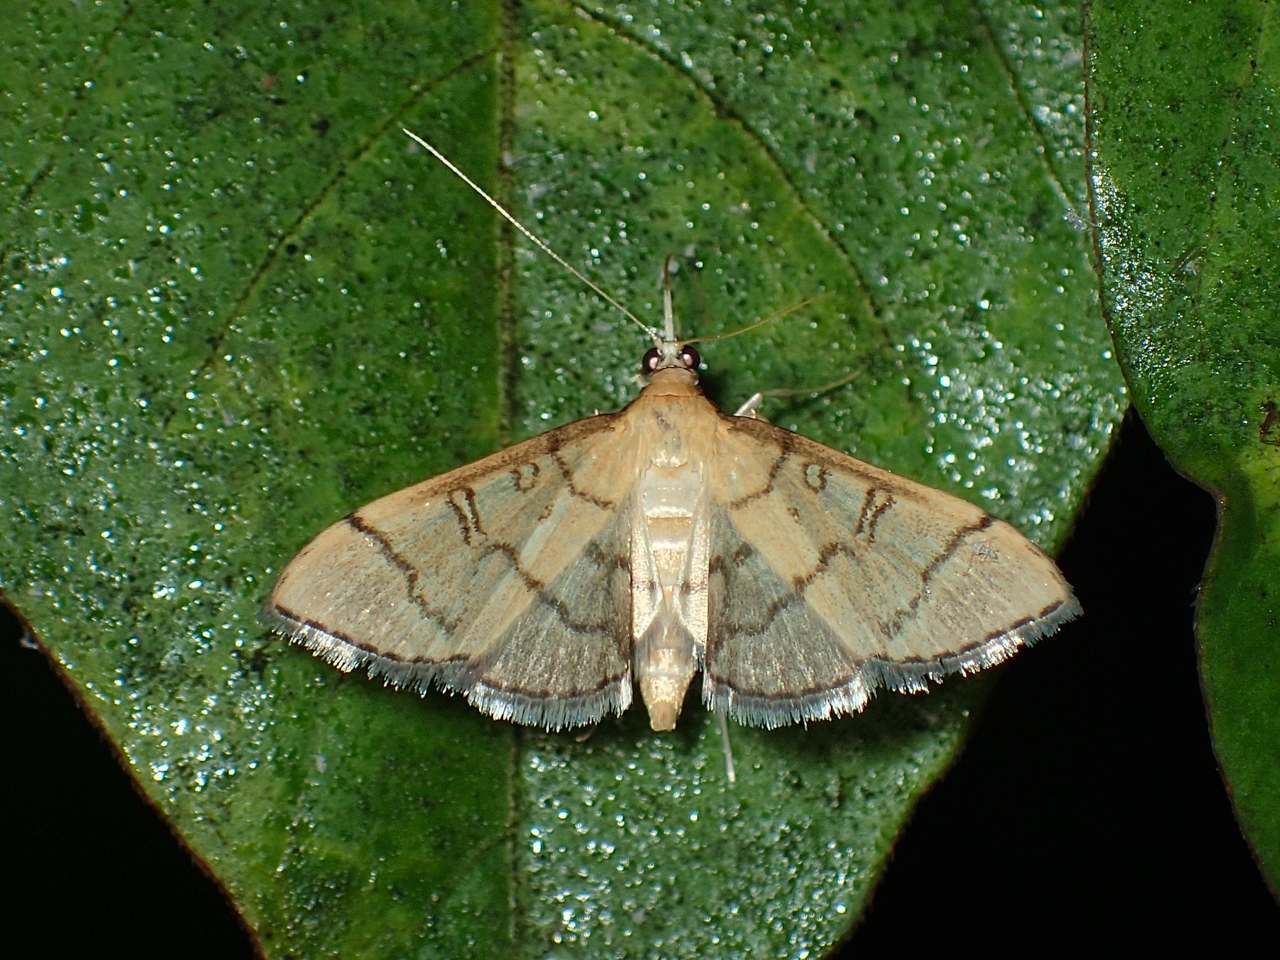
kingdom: Animalia
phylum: Arthropoda
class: Insecta
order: Lepidoptera
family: Crambidae
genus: Lamprosema
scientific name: Lamprosema Blepharomastix ranalis
